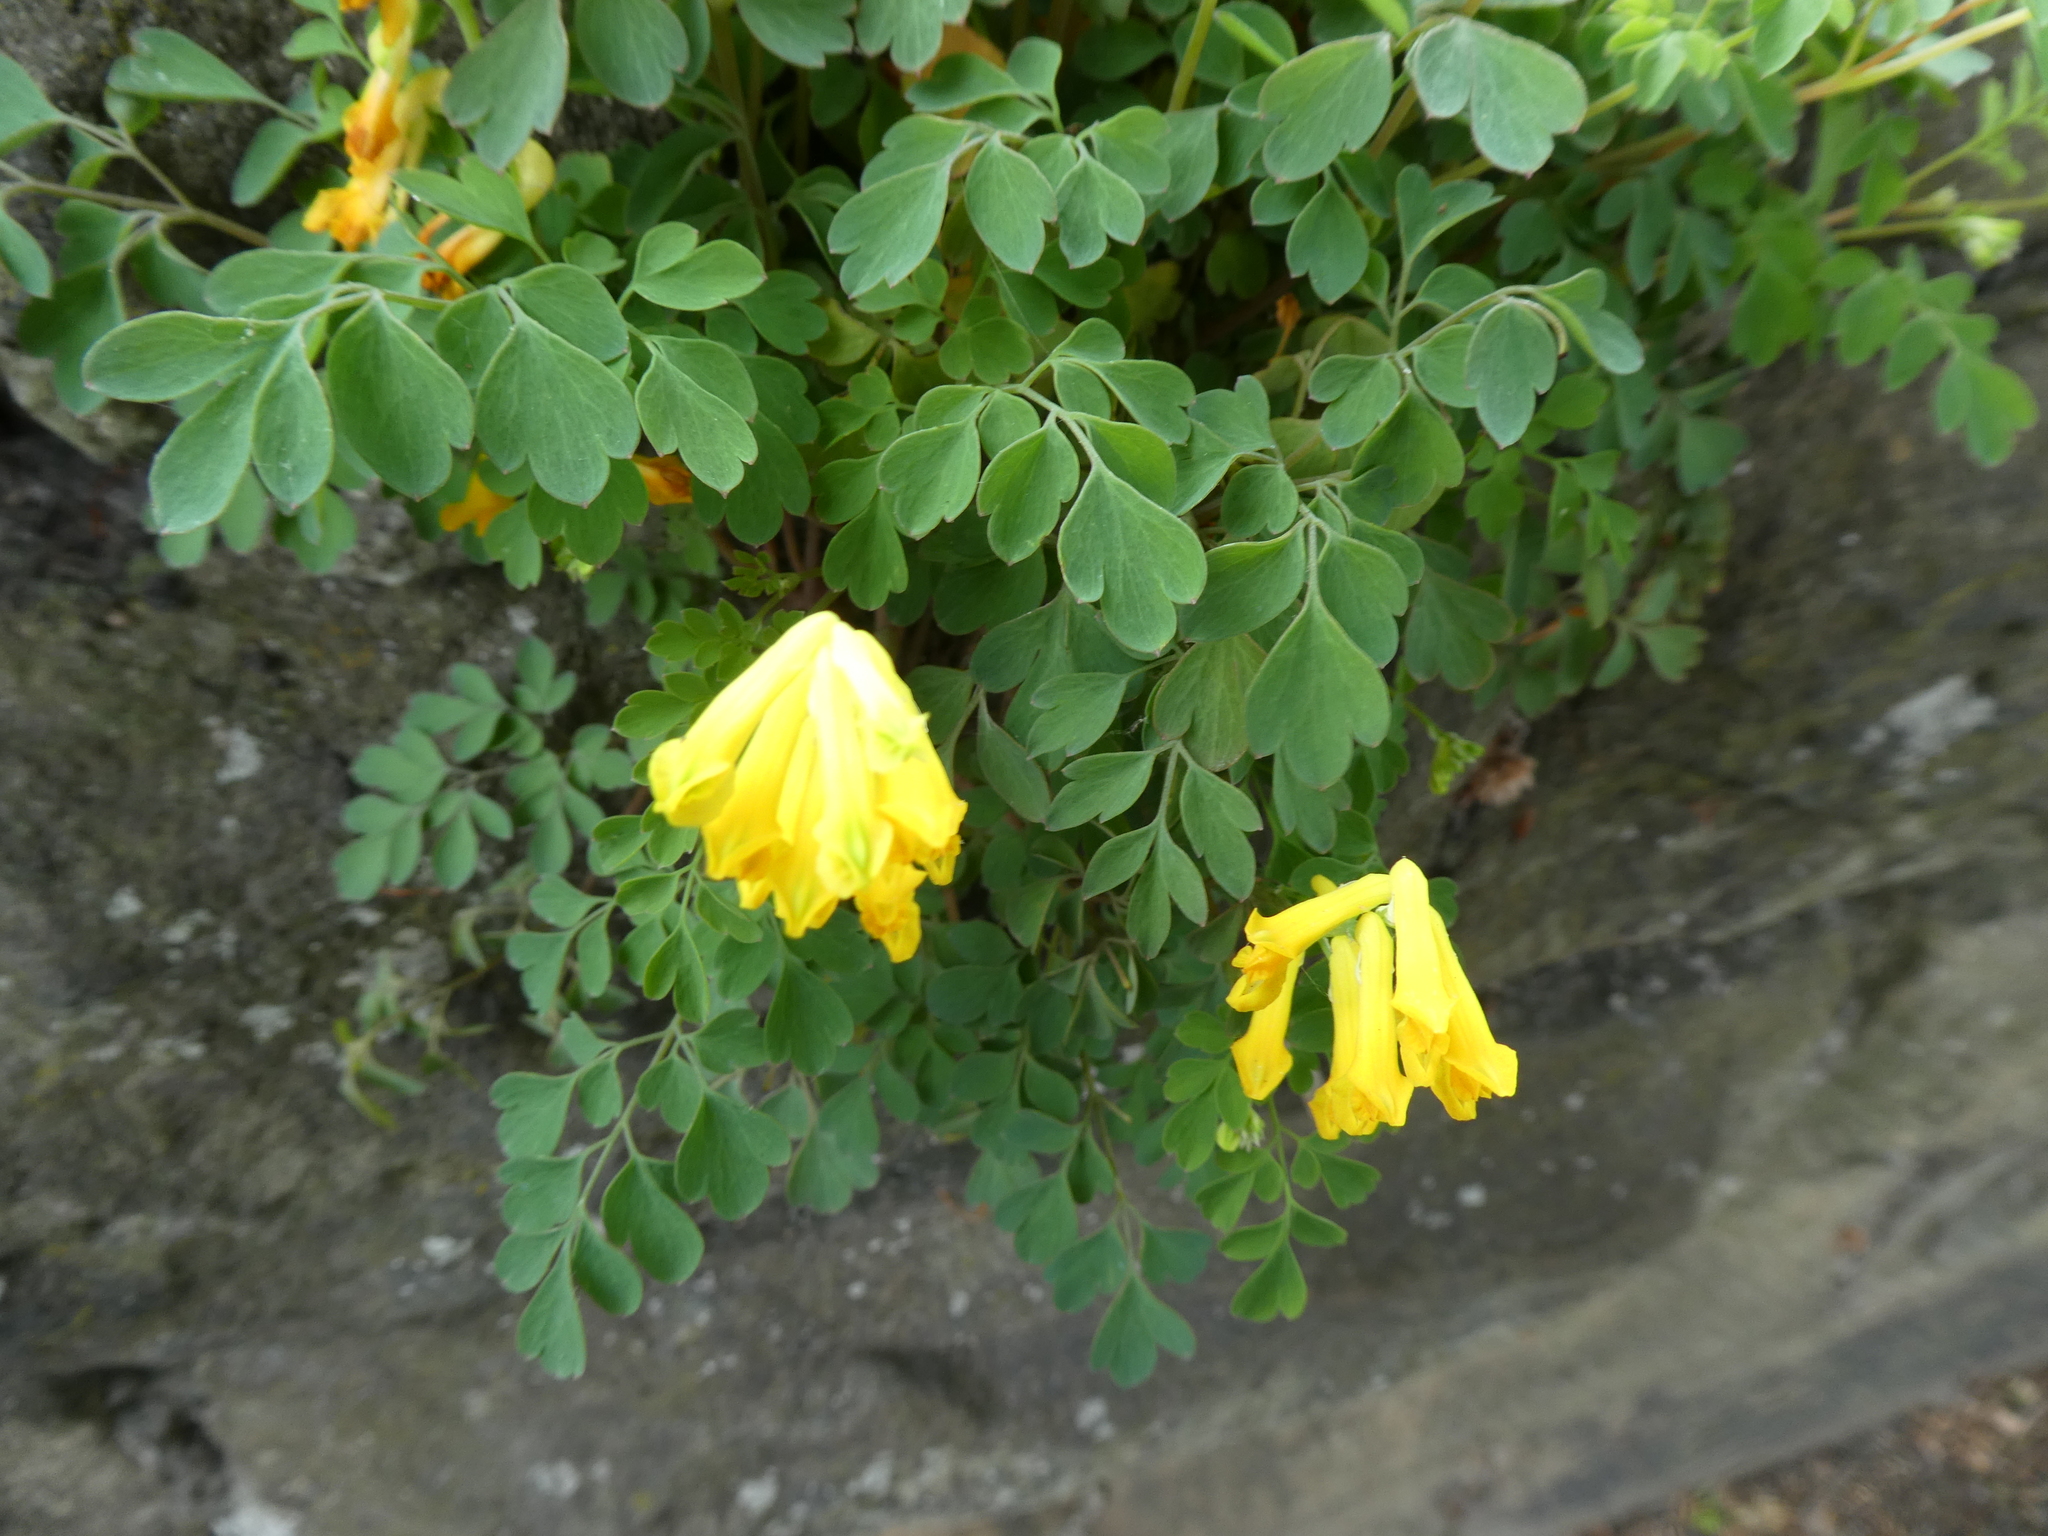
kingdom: Plantae
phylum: Tracheophyta
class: Magnoliopsida
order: Ranunculales
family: Papaveraceae
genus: Pseudofumaria
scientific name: Pseudofumaria lutea
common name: Yellow corydalis
